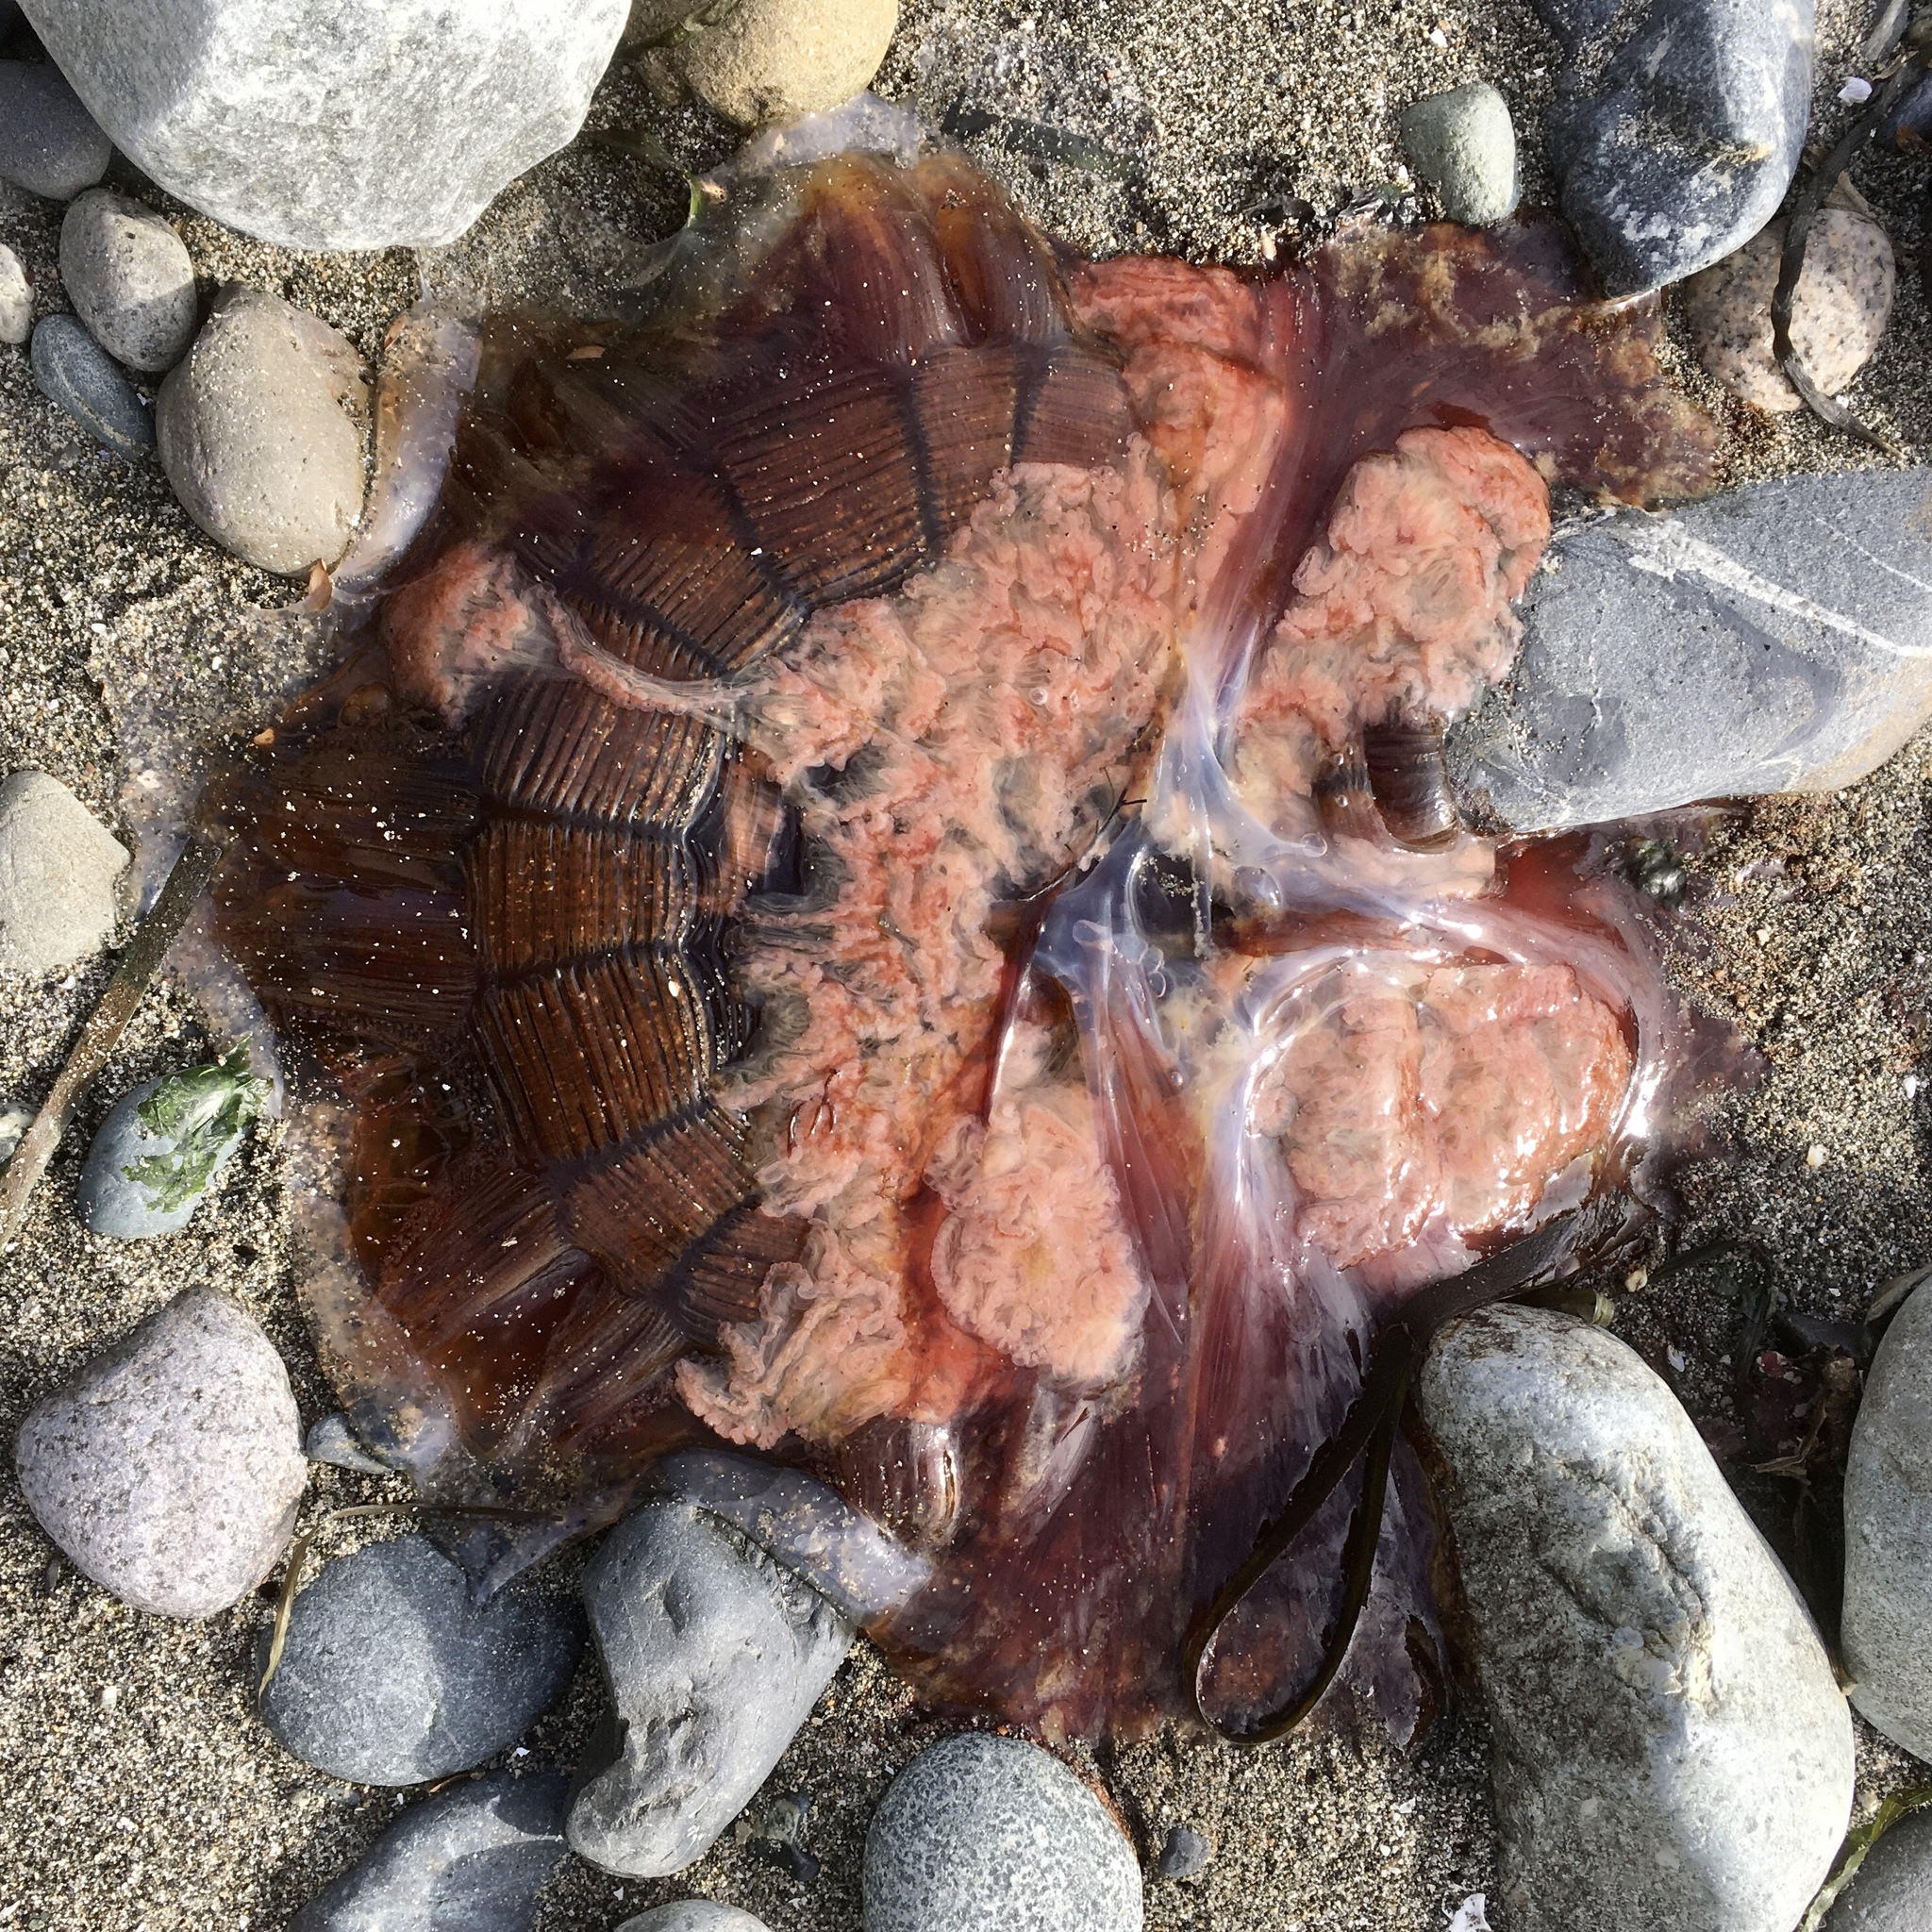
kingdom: Animalia
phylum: Cnidaria
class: Scyphozoa
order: Semaeostomeae
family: Cyaneidae
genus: Cyanea
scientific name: Cyanea ferruginea
